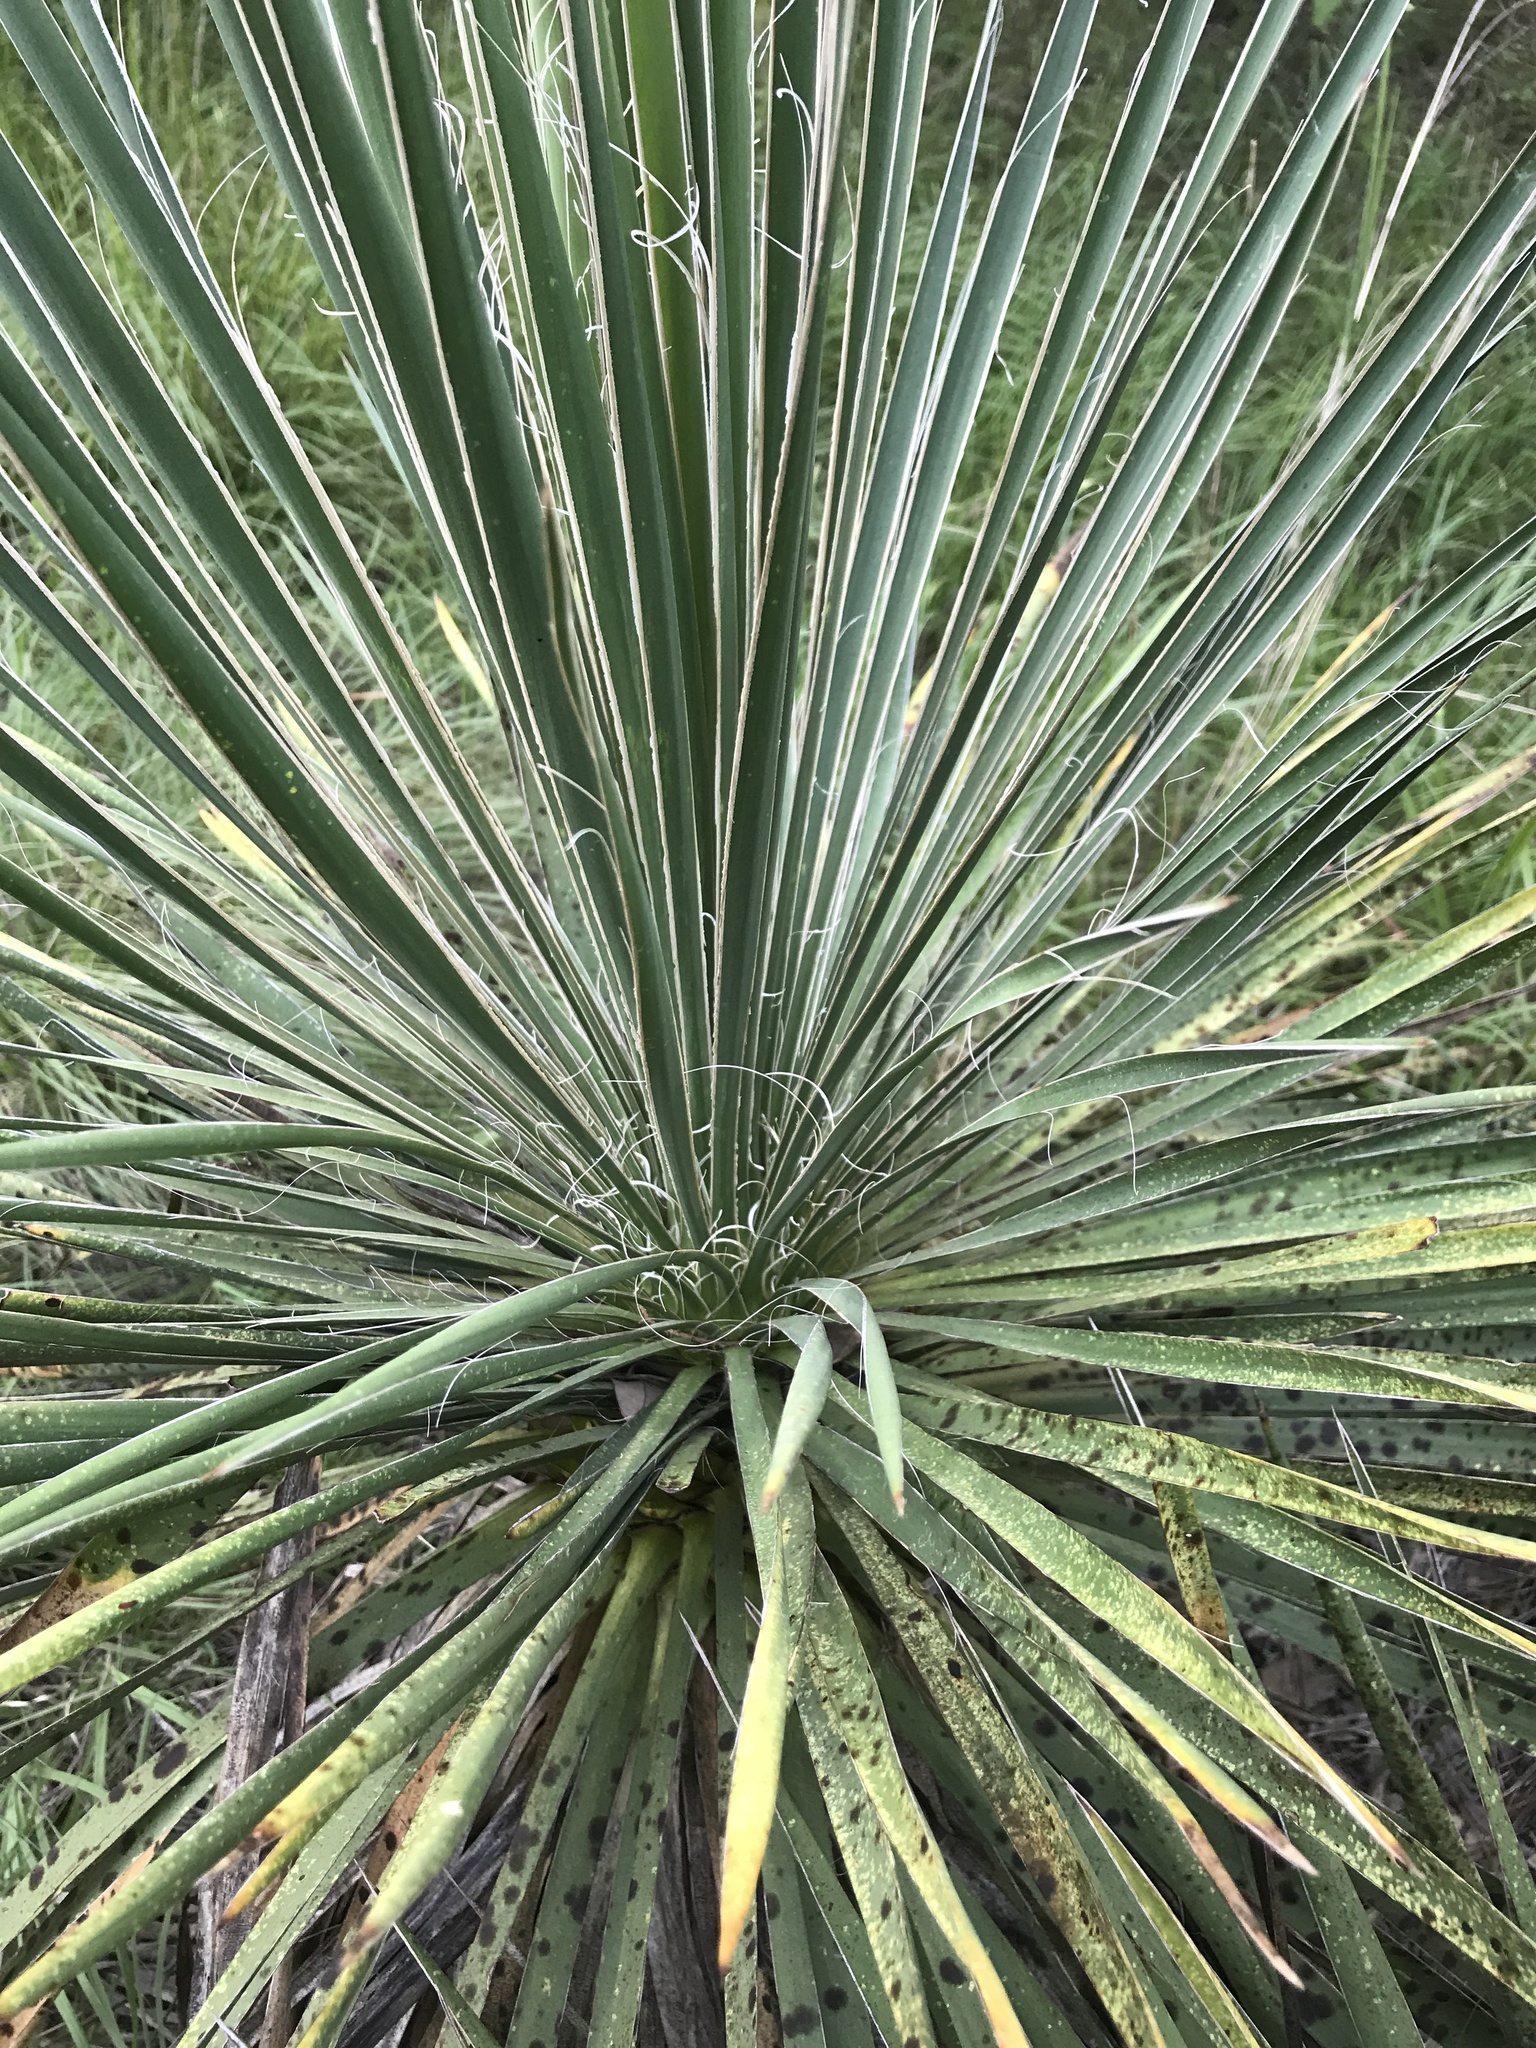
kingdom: Plantae
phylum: Tracheophyta
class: Liliopsida
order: Asparagales
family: Asparagaceae
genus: Yucca
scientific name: Yucca constricta
